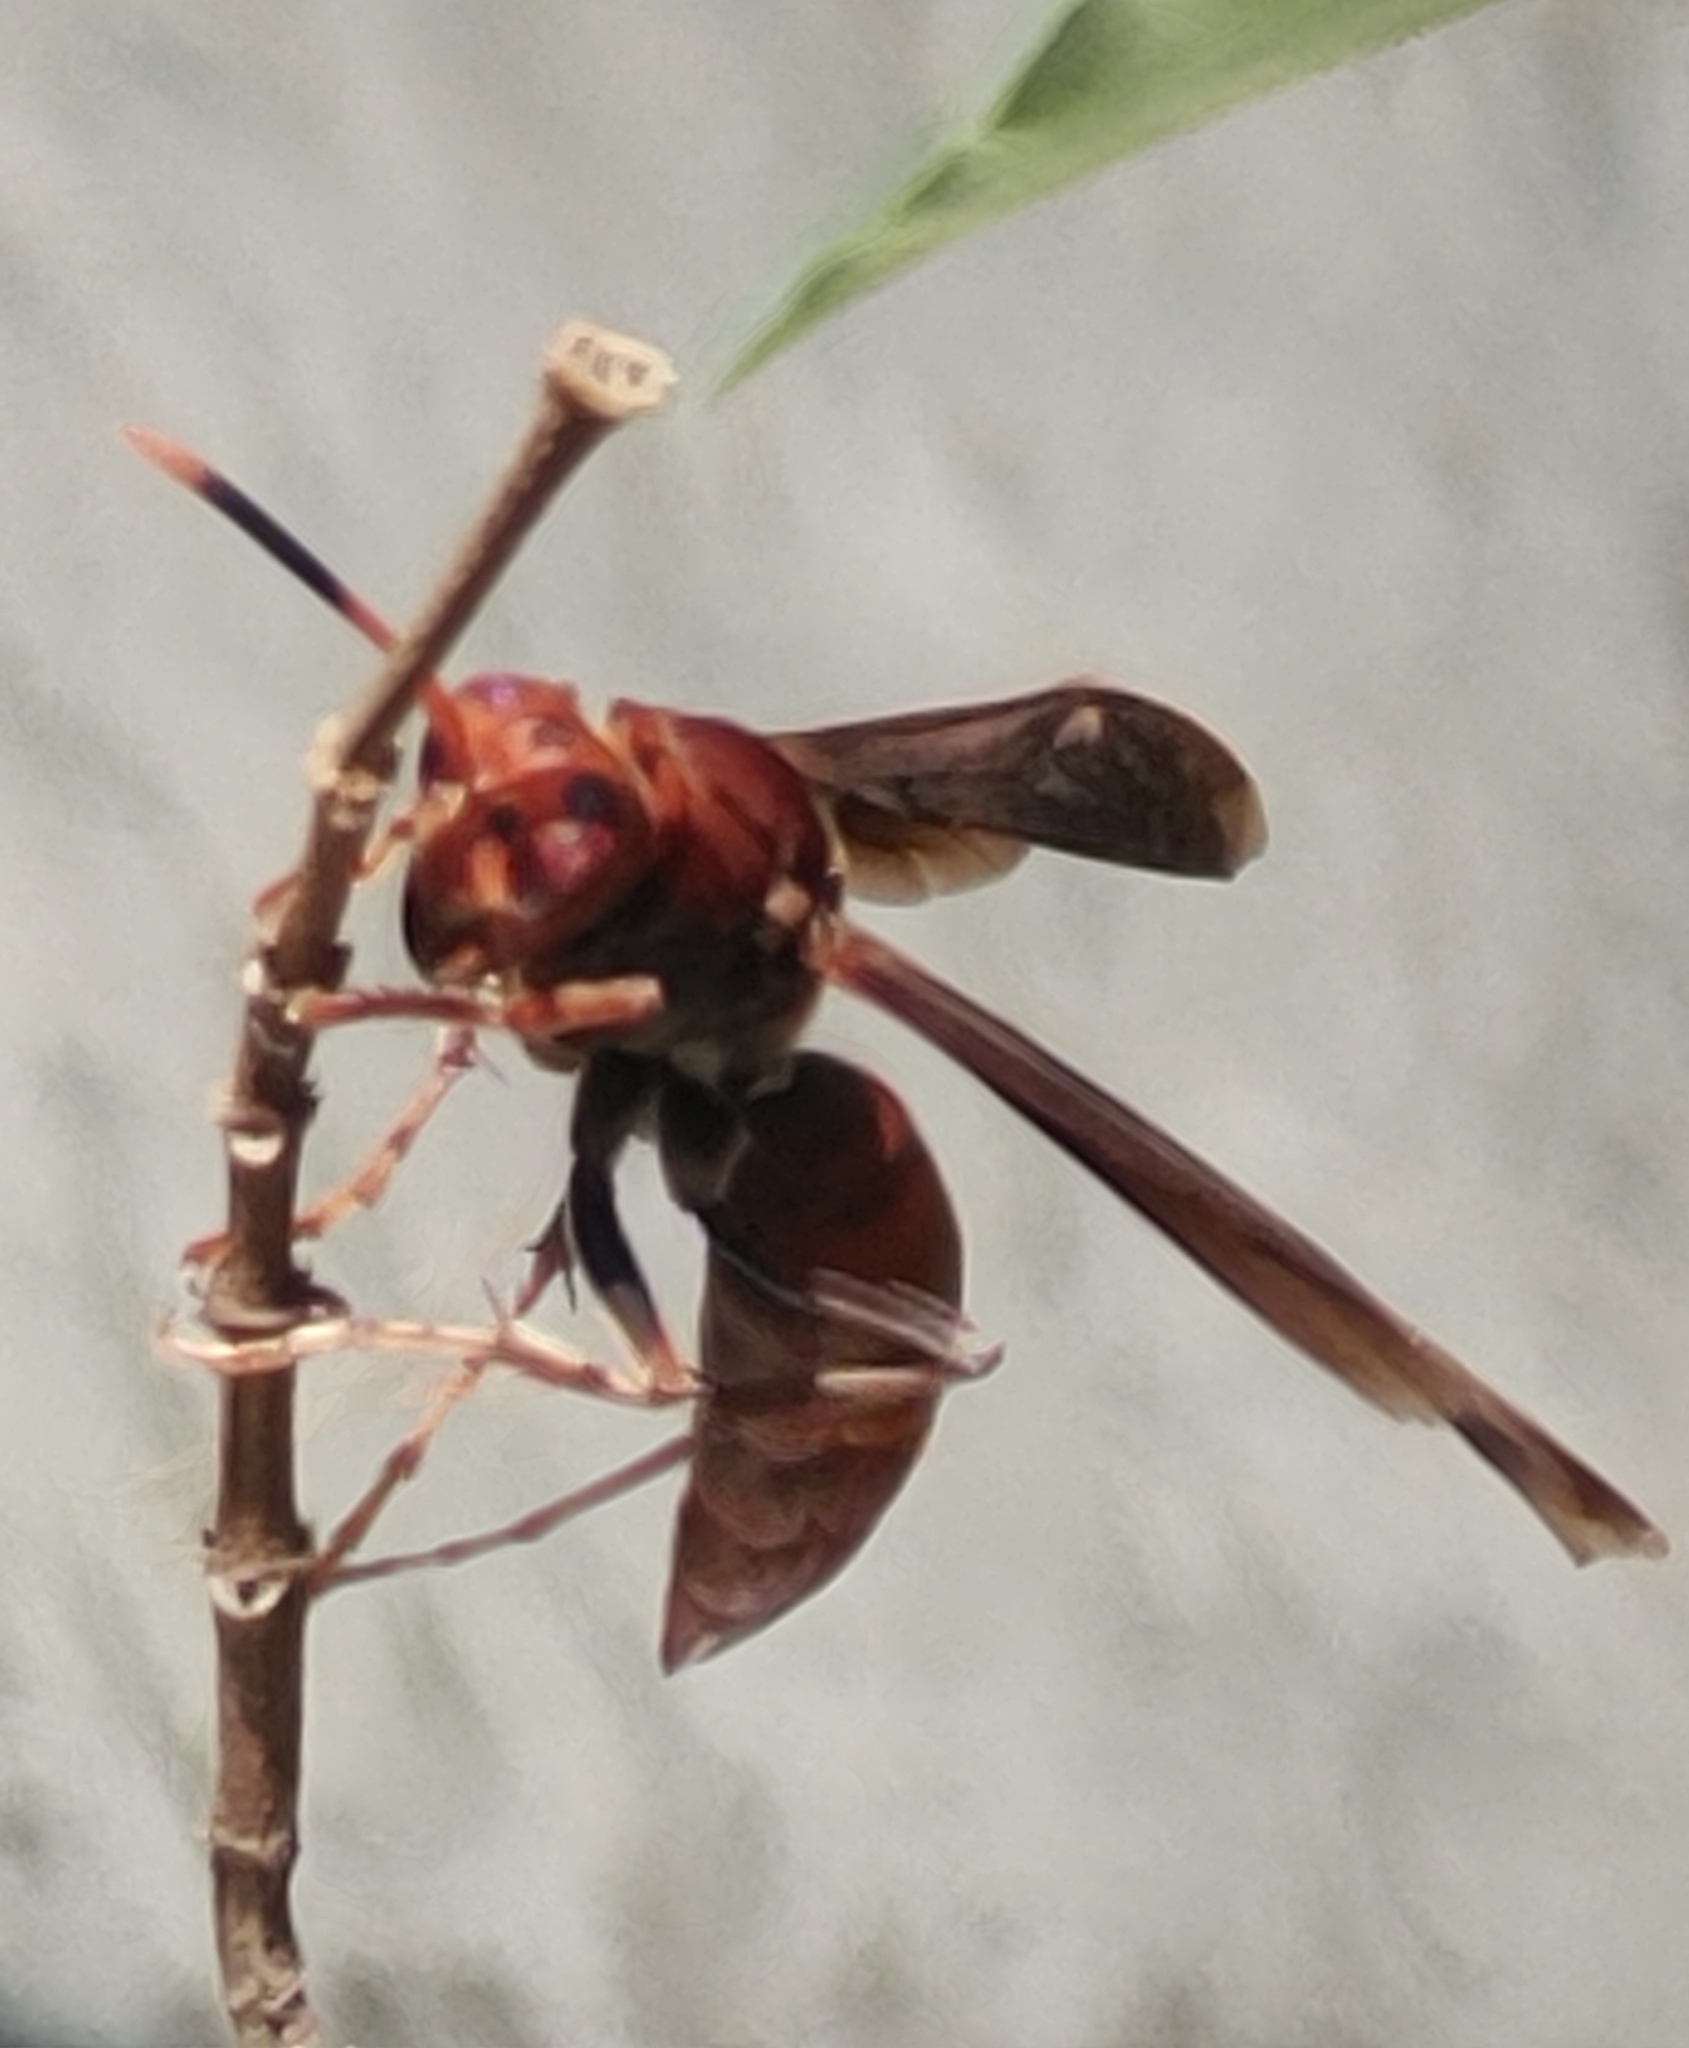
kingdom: Animalia
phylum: Arthropoda
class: Insecta
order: Hymenoptera
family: Eumenidae
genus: Polistes
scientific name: Polistes canadensis
